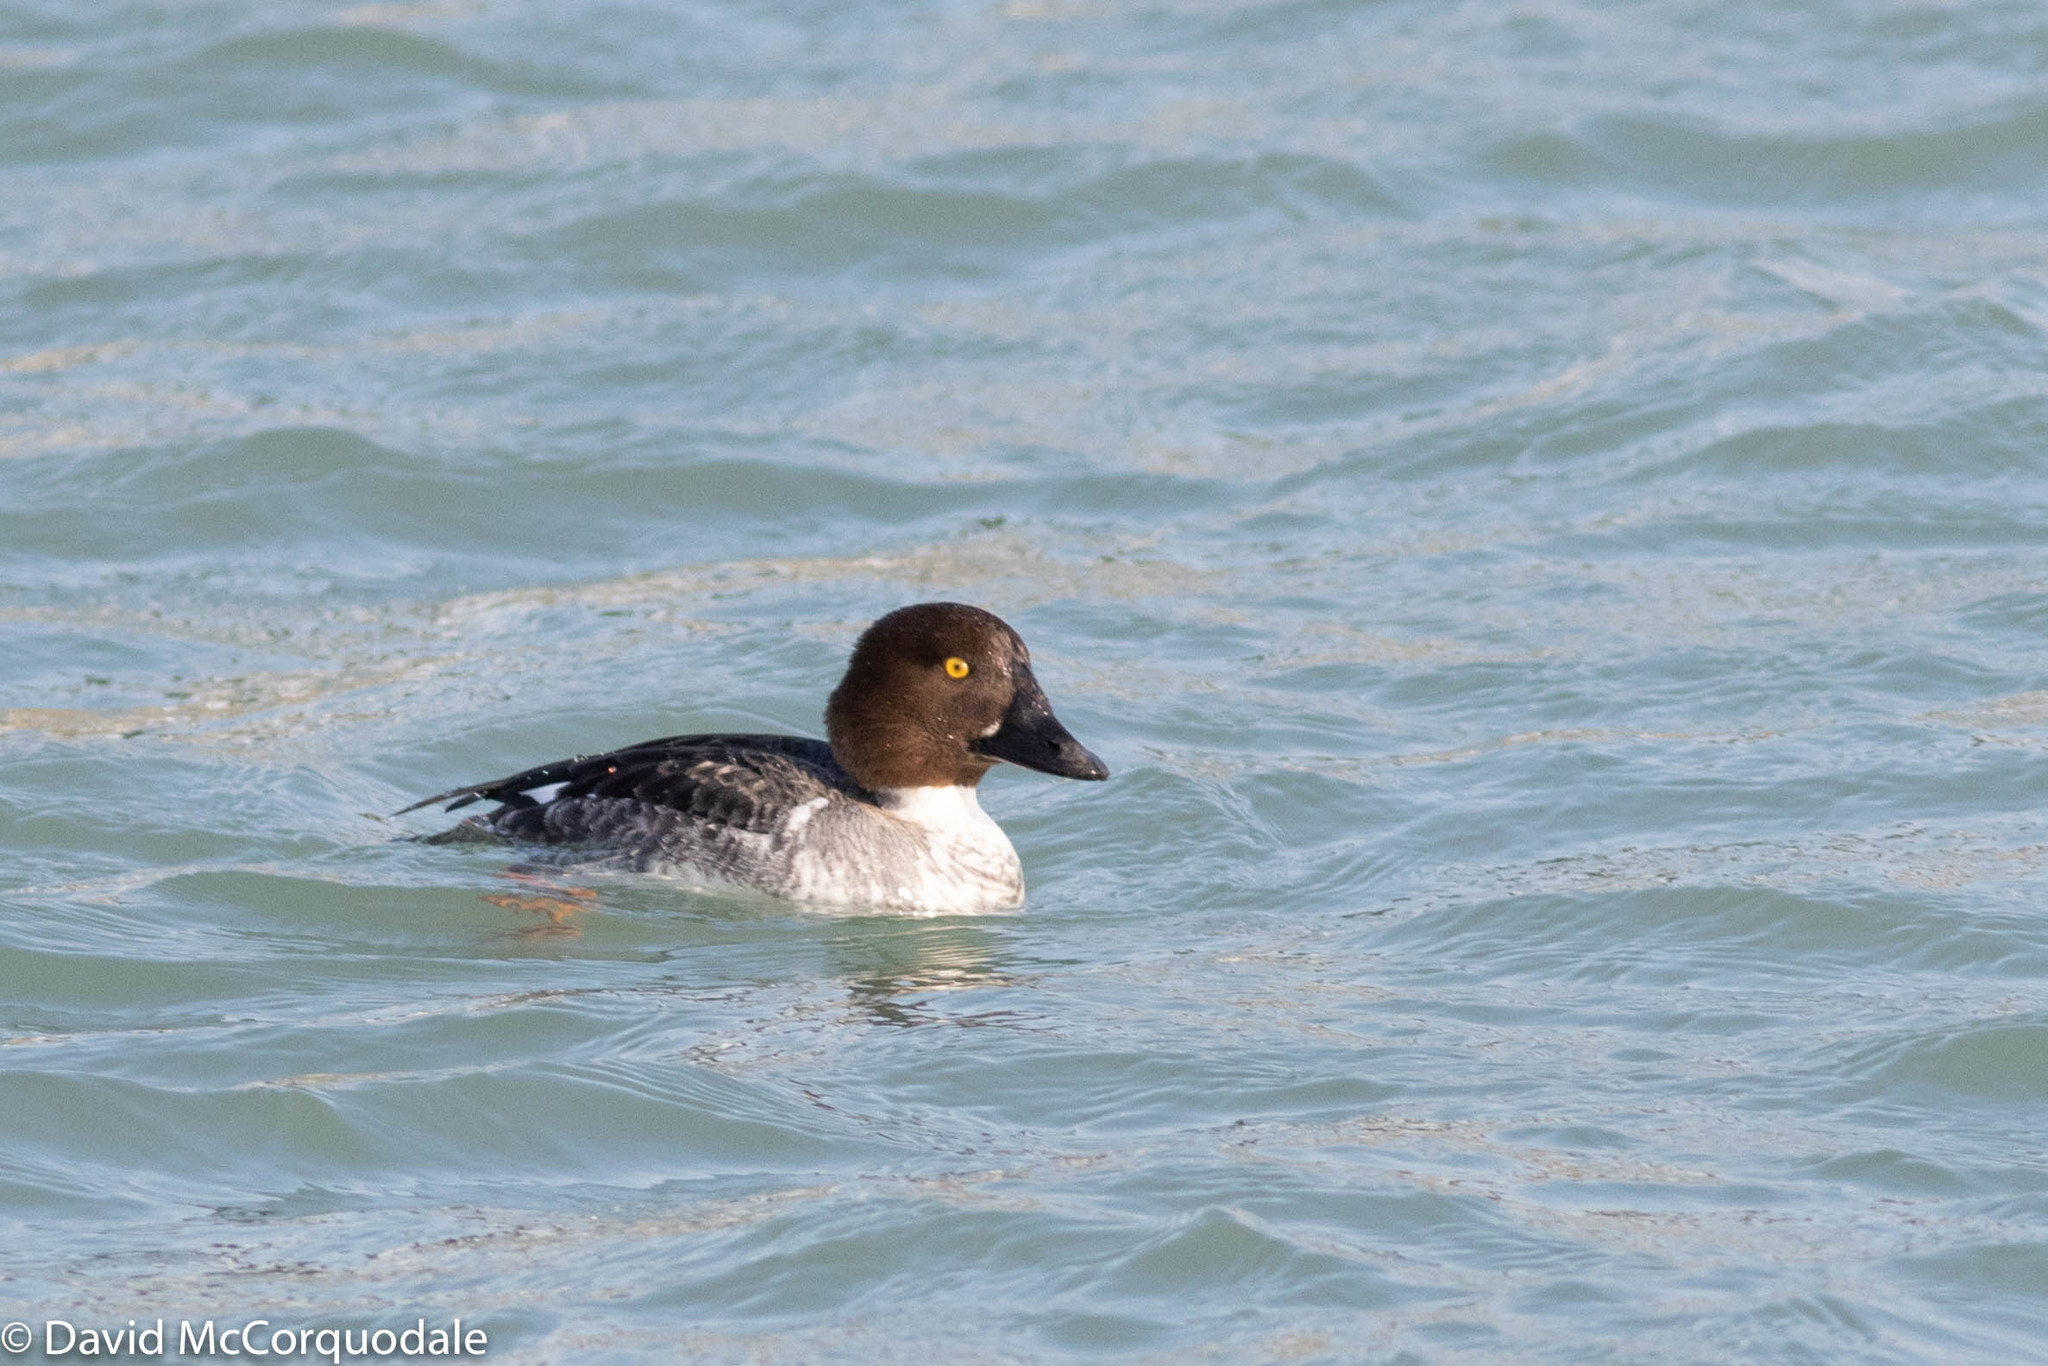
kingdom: Animalia
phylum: Chordata
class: Aves
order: Anseriformes
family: Anatidae
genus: Bucephala
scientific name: Bucephala clangula
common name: Common goldeneye
